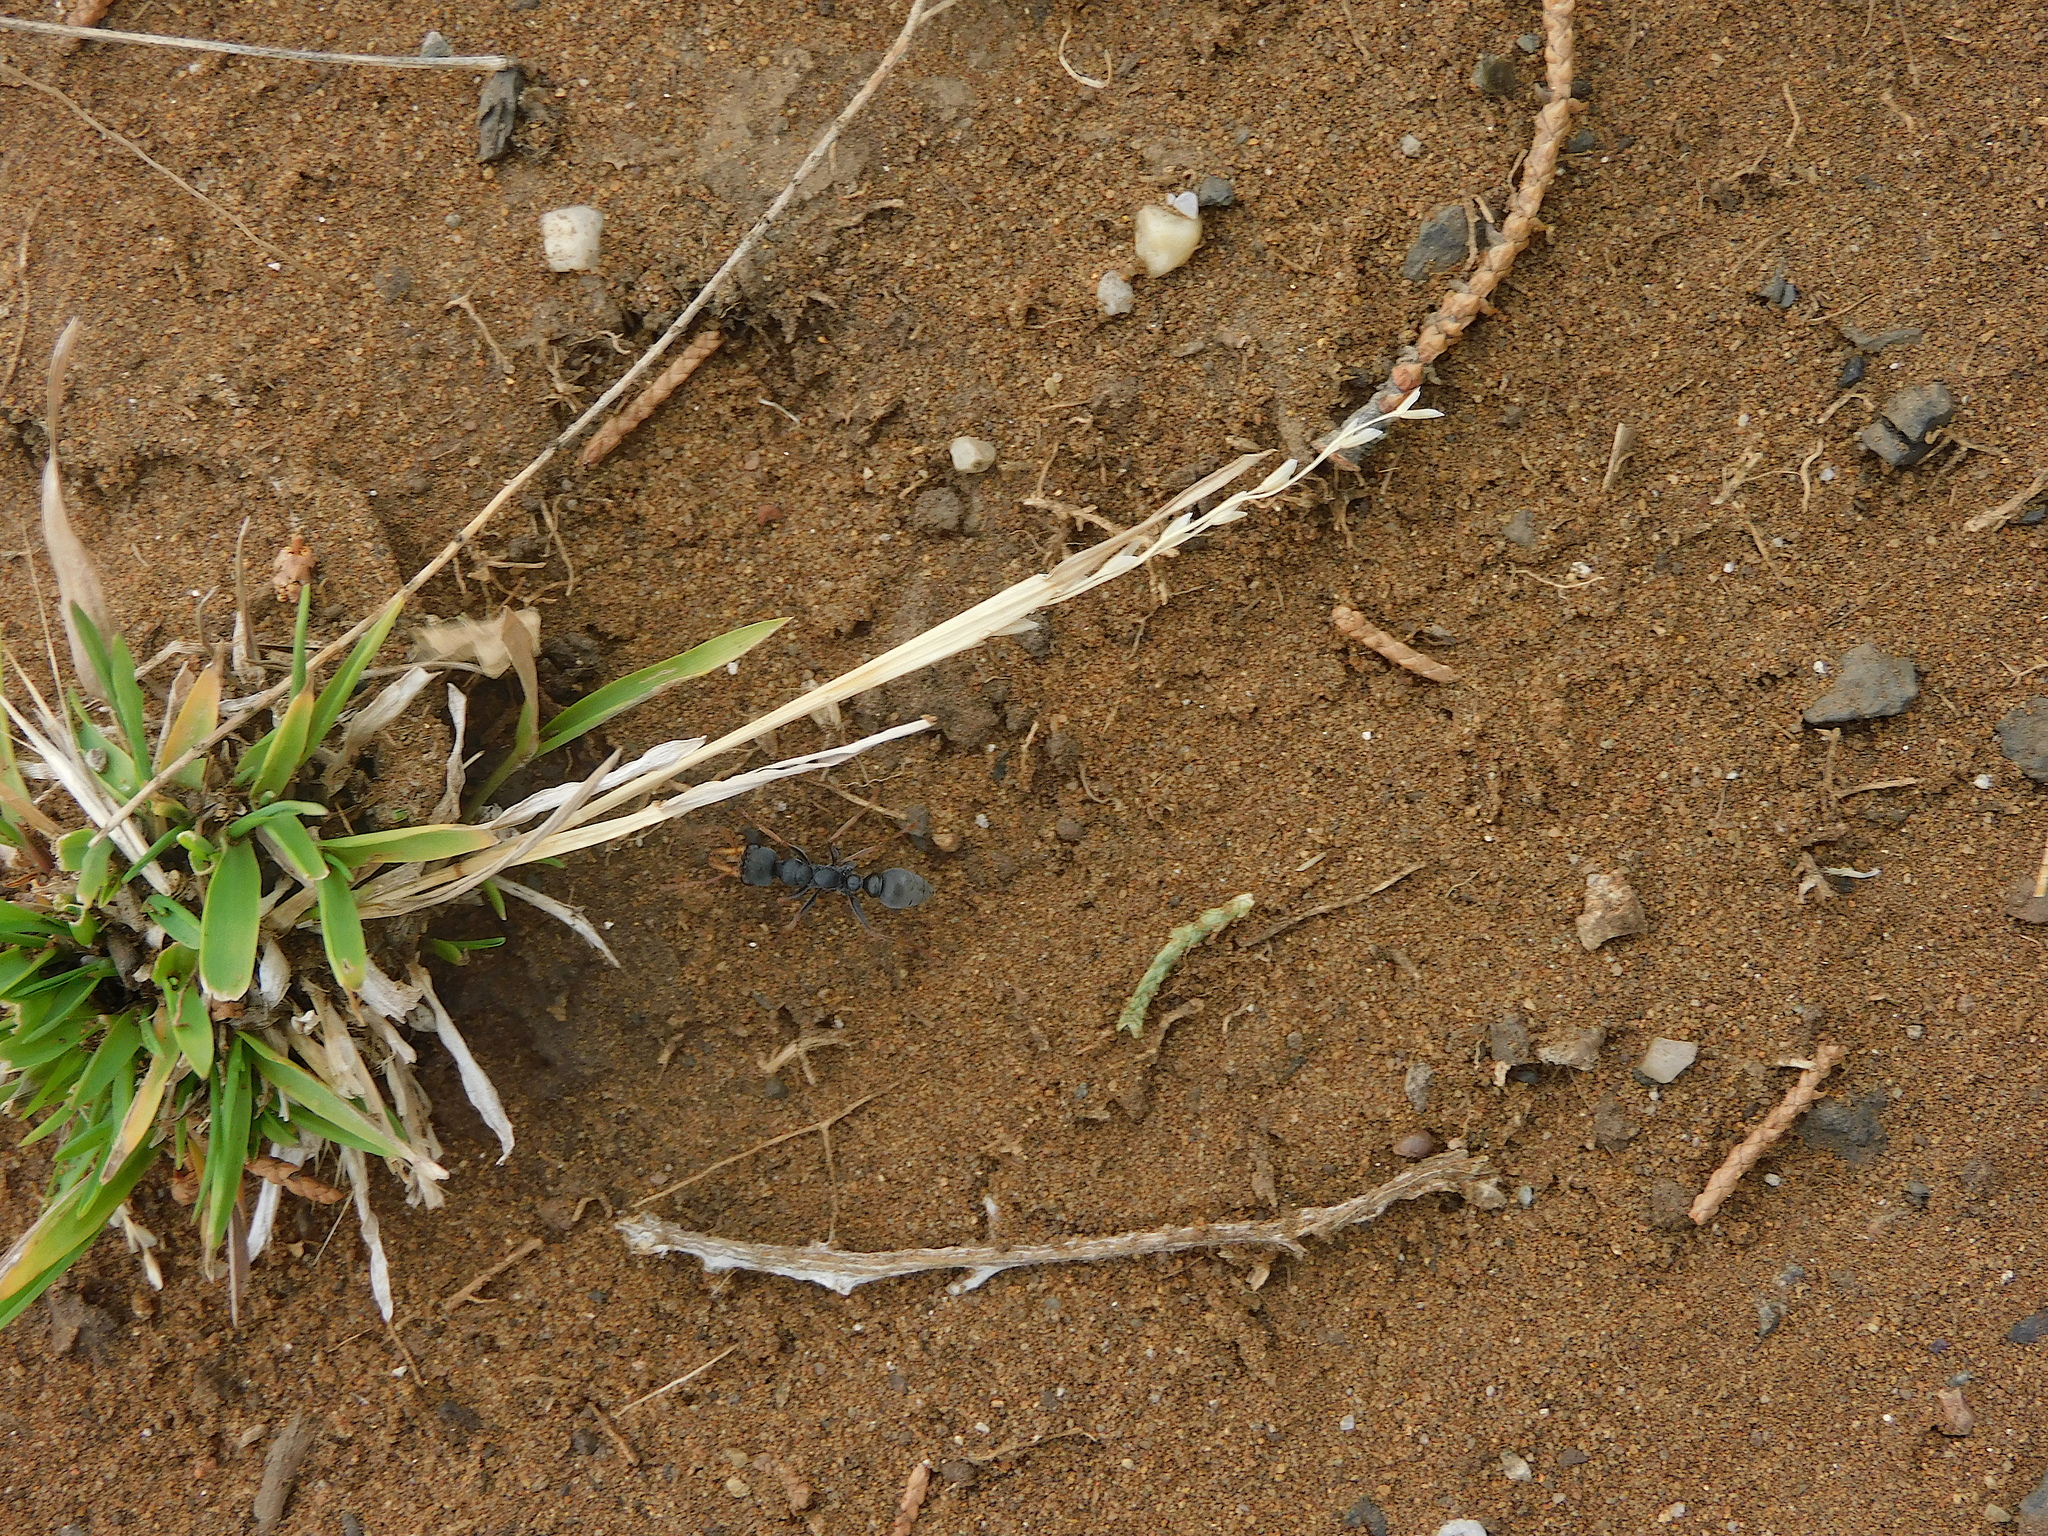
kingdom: Animalia
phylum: Arthropoda
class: Insecta
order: Hymenoptera
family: Formicidae
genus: Myrmecia
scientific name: Myrmecia pilosula
